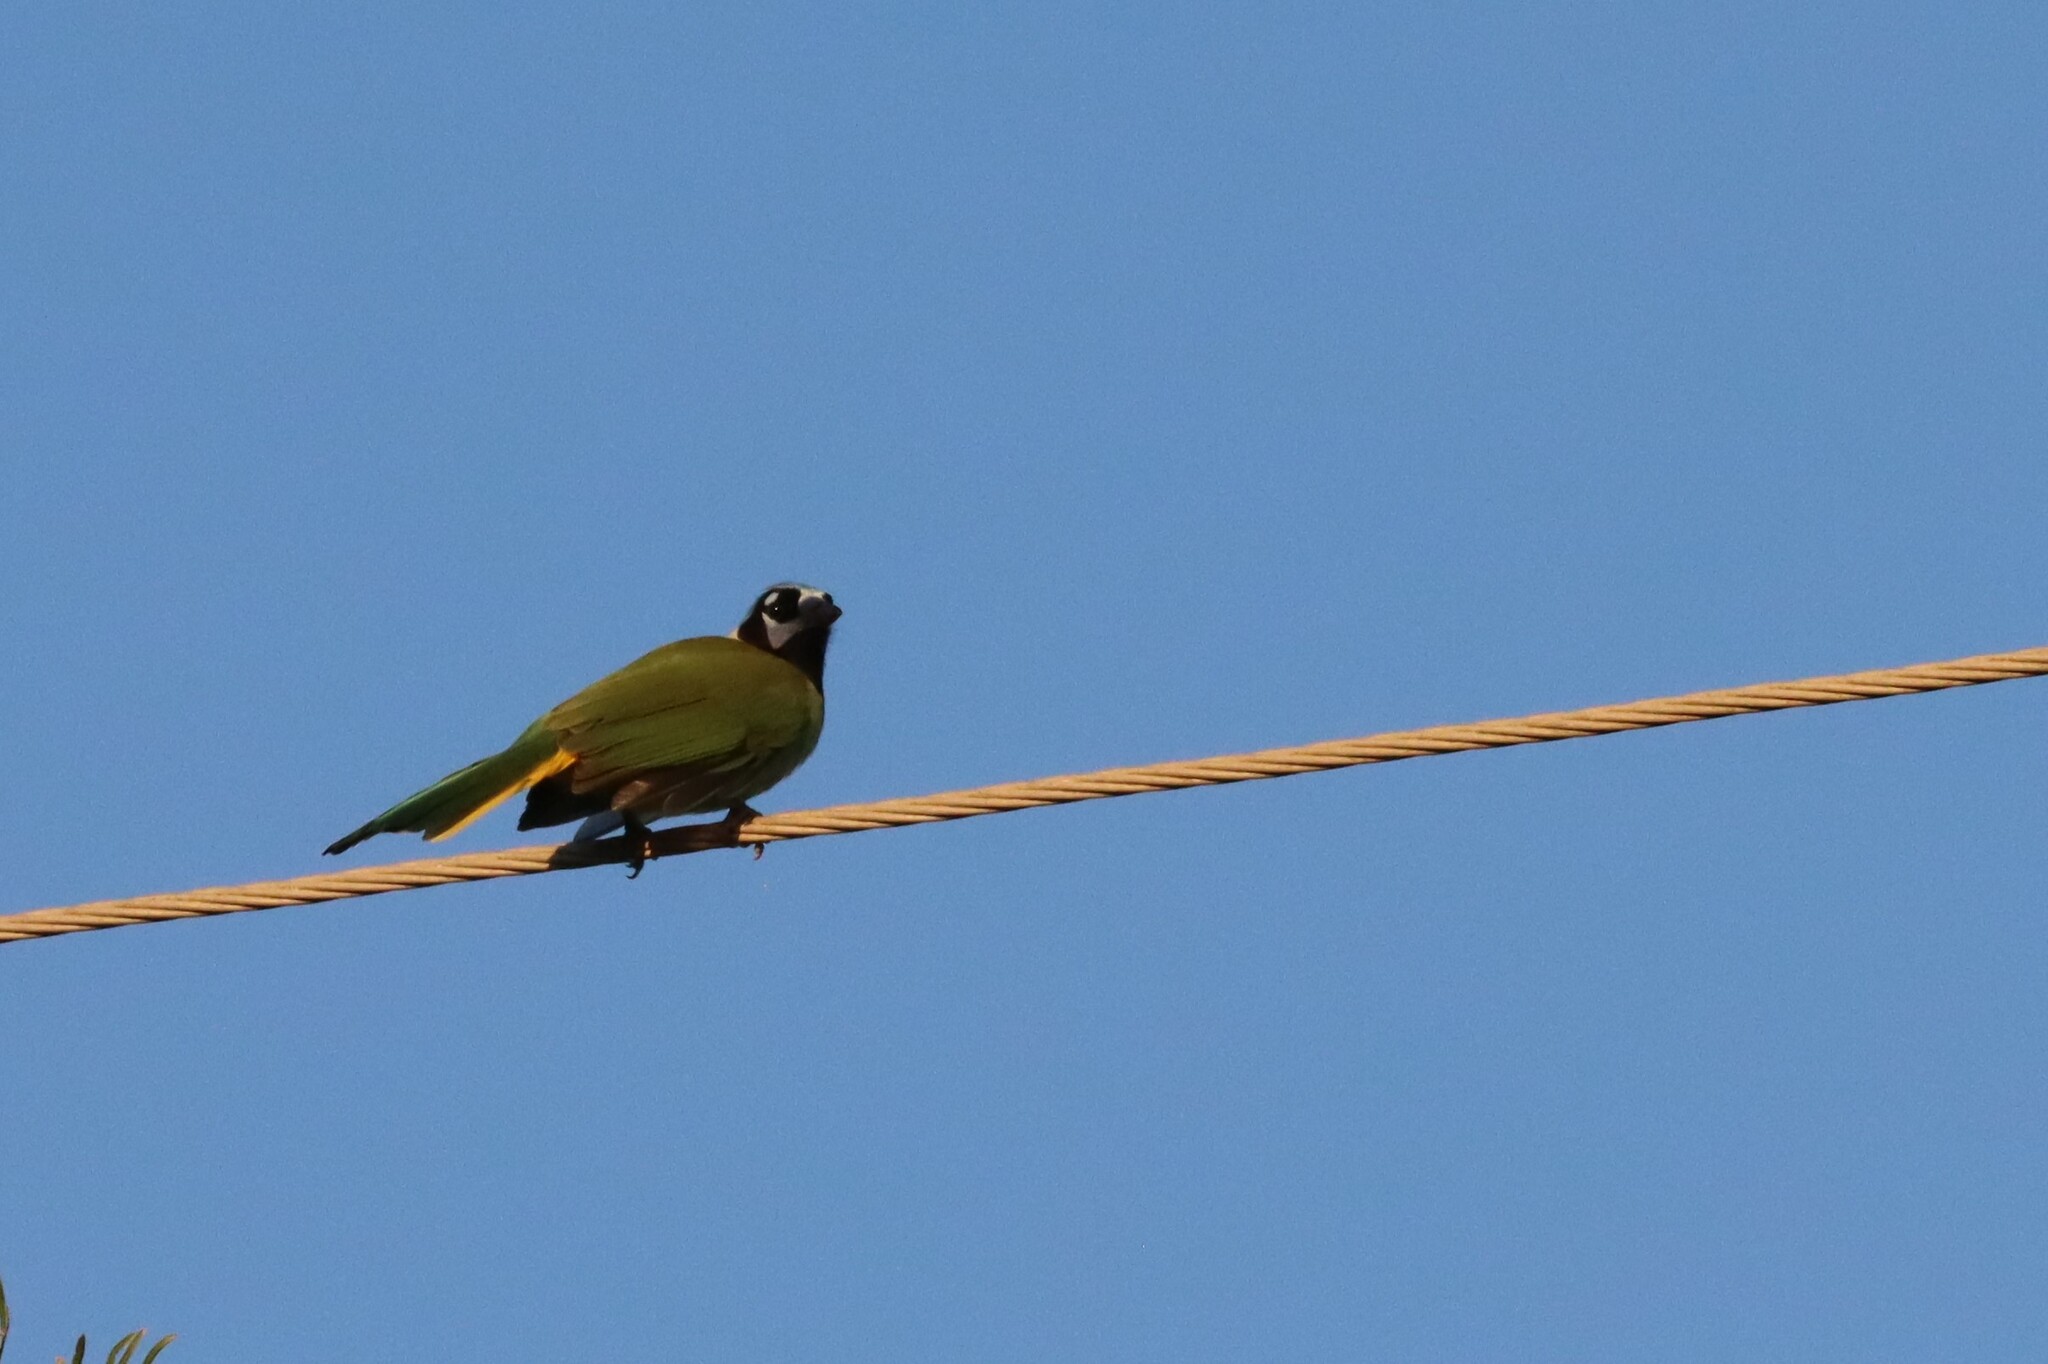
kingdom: Animalia
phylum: Chordata
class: Aves
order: Passeriformes
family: Corvidae
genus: Cyanocorax
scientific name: Cyanocorax yncas
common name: Green jay
